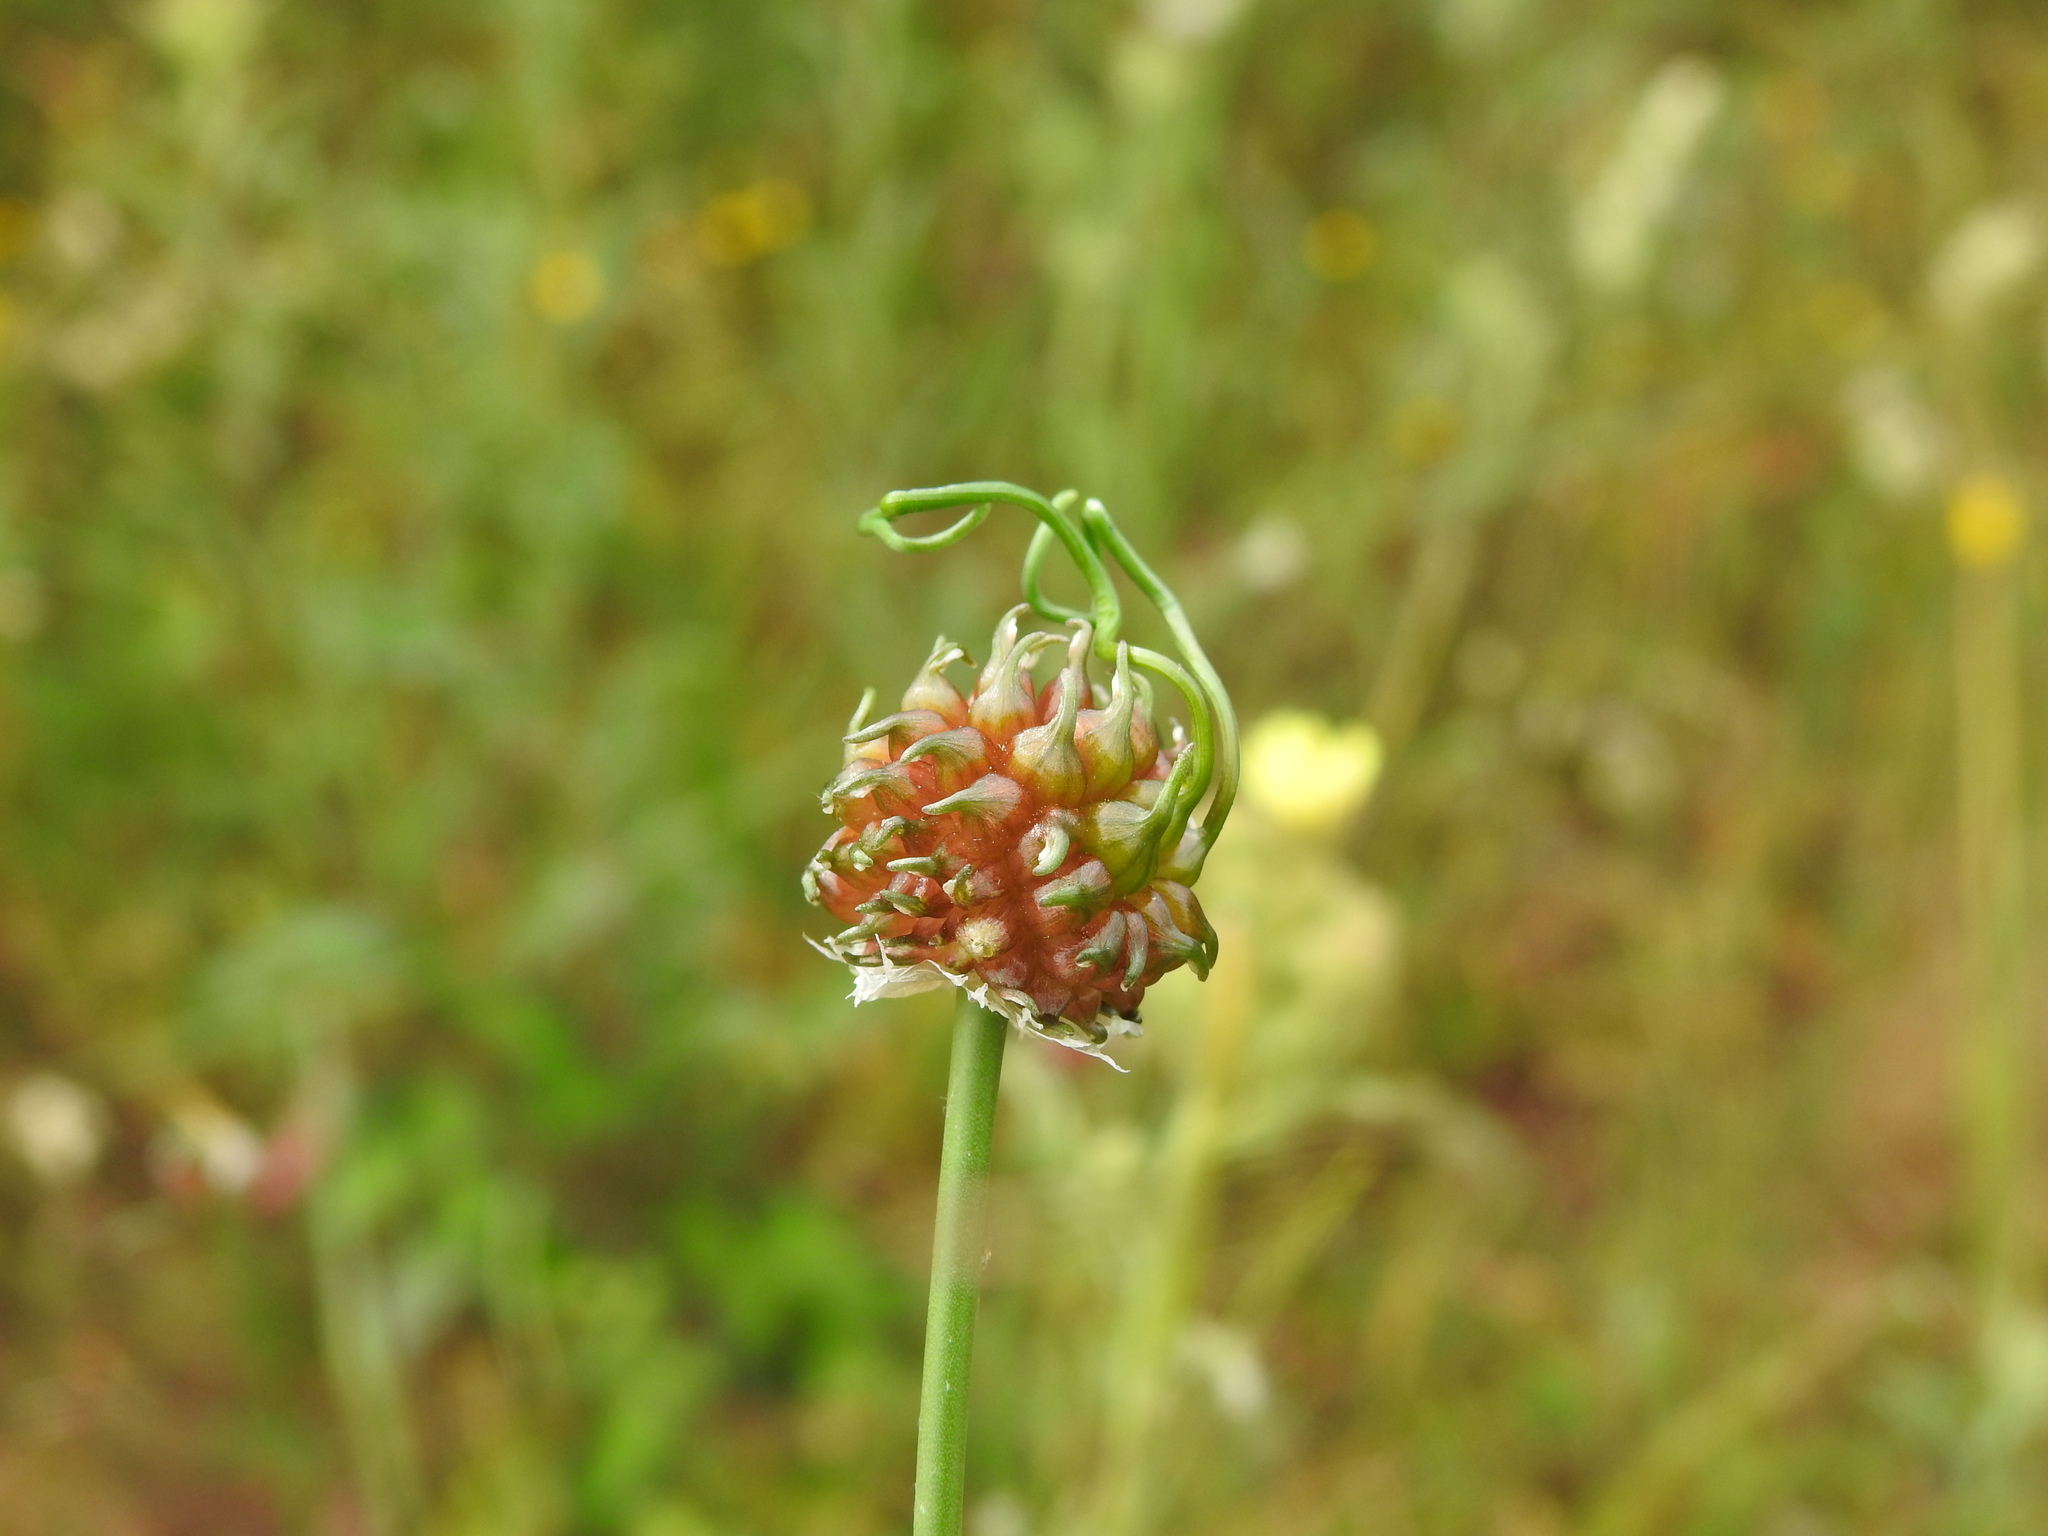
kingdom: Plantae
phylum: Tracheophyta
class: Liliopsida
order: Asparagales
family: Amaryllidaceae
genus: Allium
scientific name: Allium vineale
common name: Crow garlic
